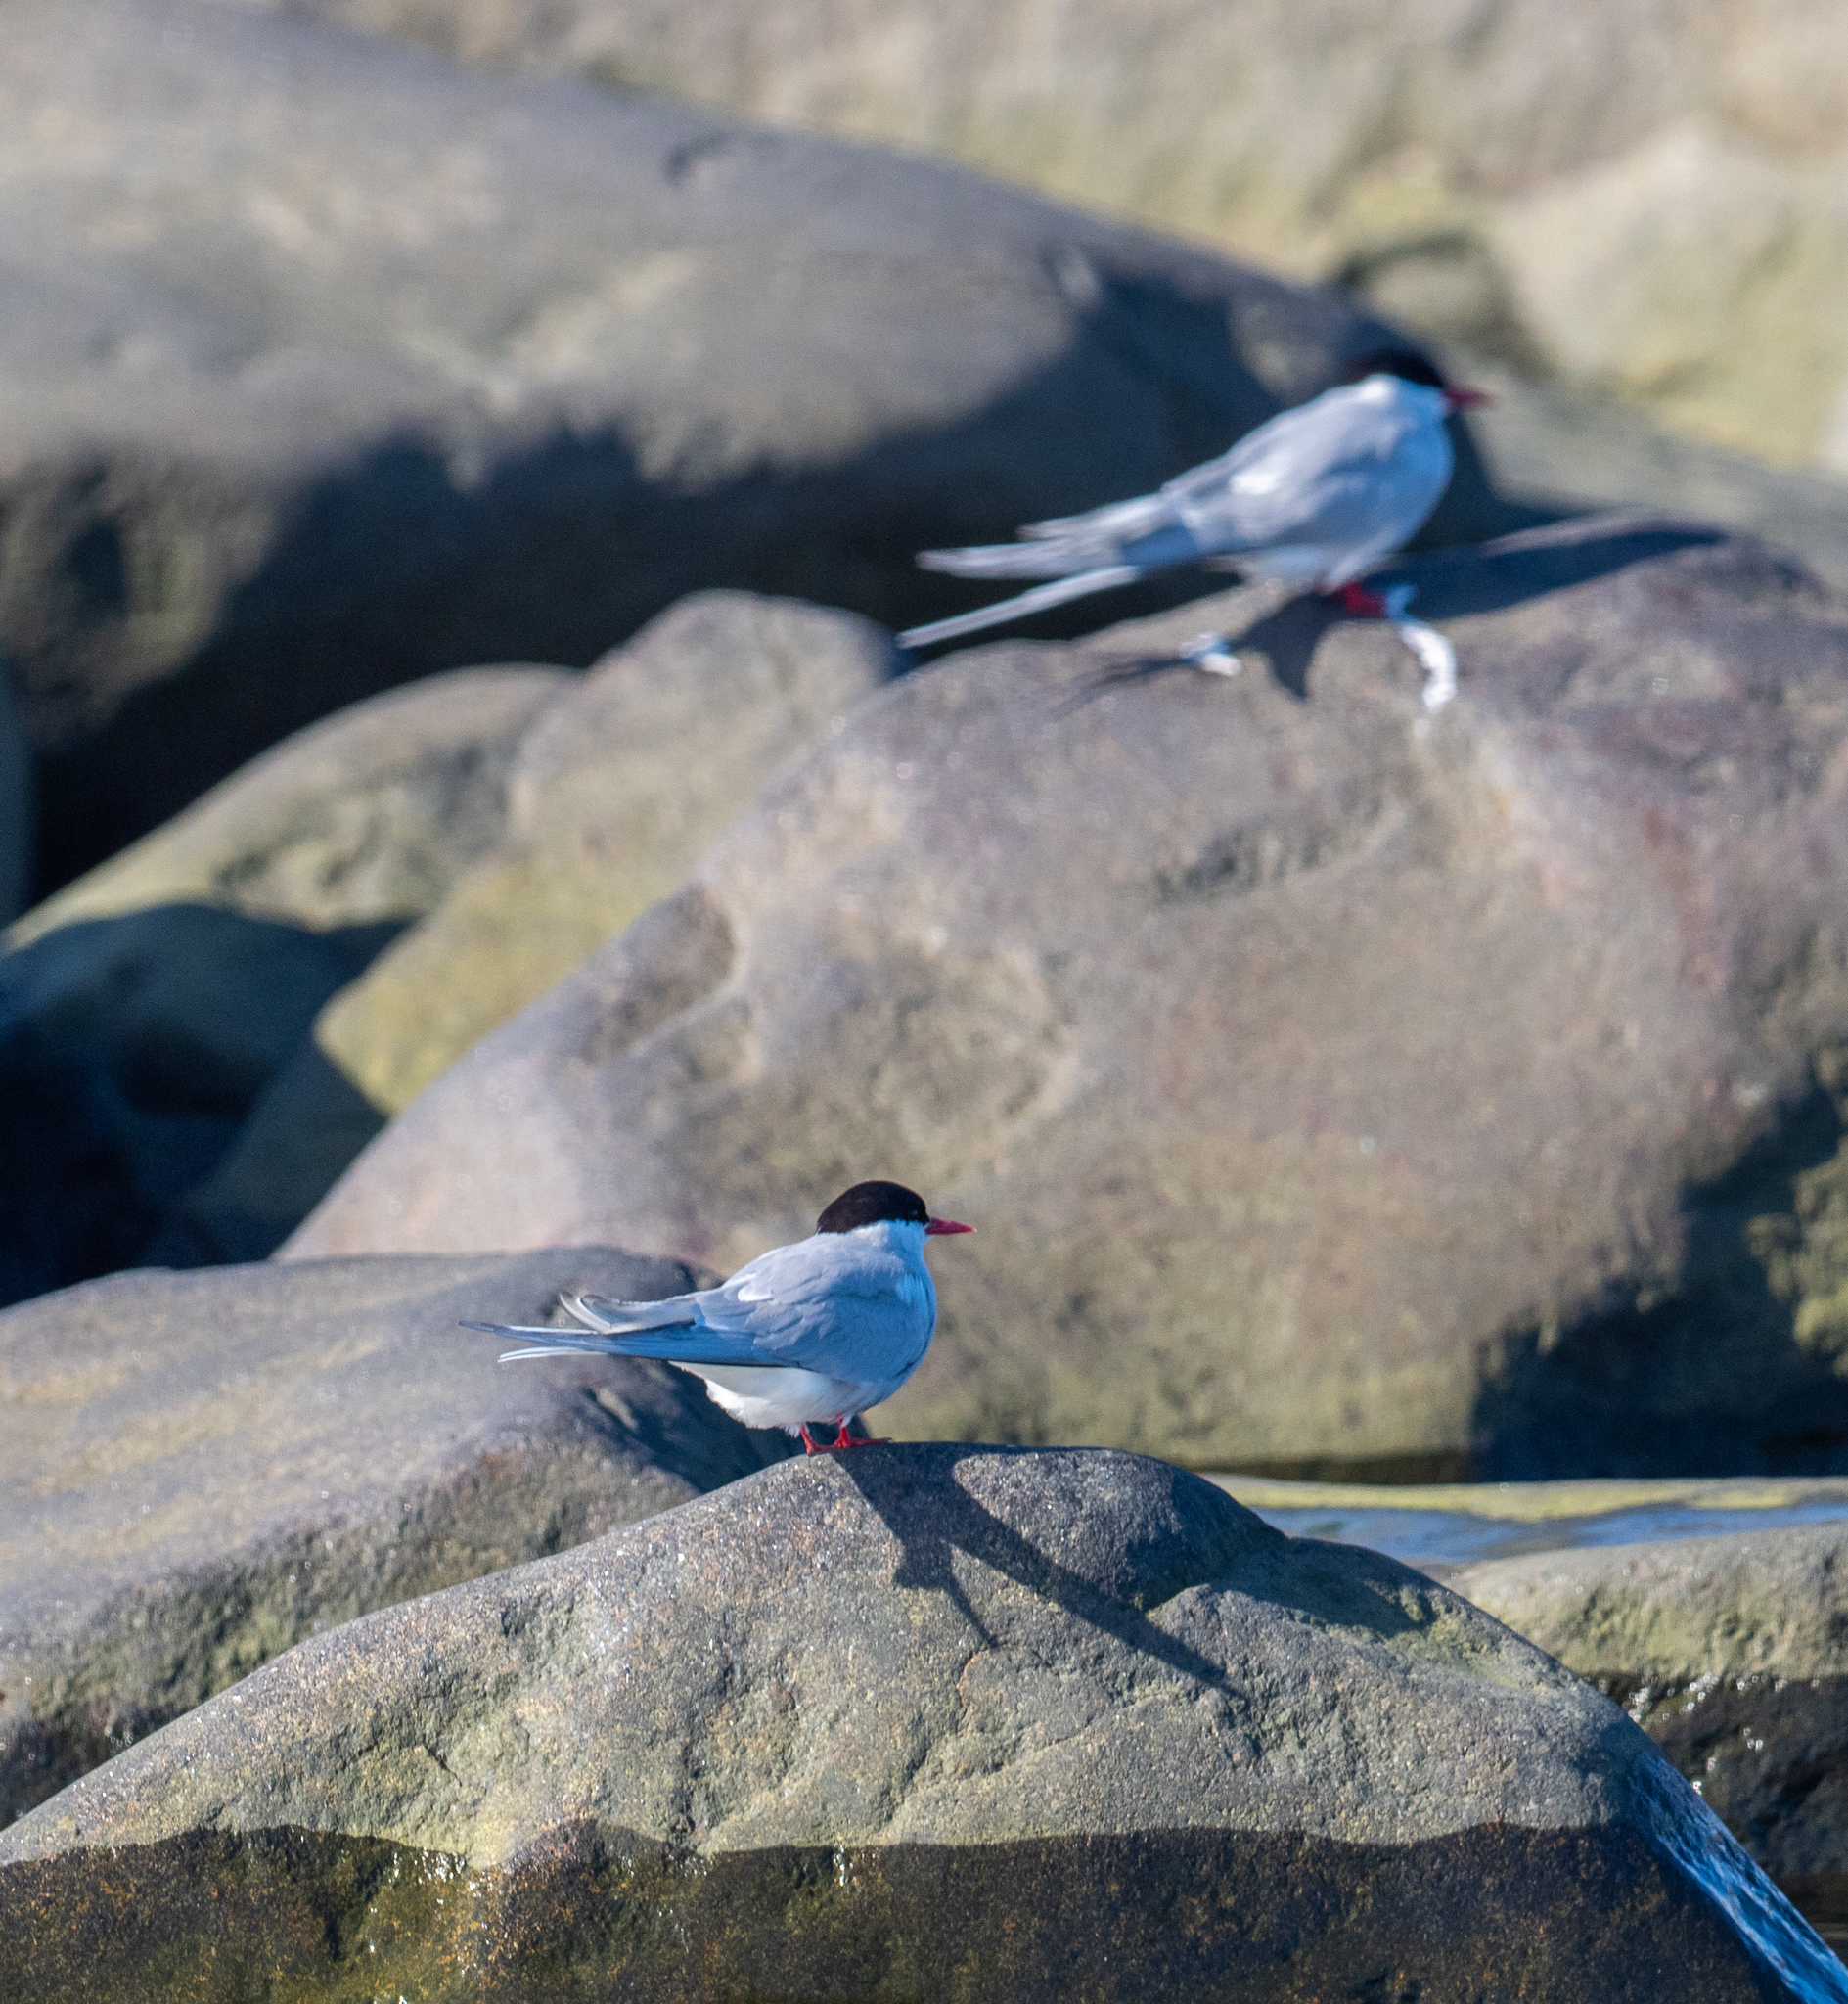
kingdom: Animalia
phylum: Chordata
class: Aves
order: Charadriiformes
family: Laridae
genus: Sterna
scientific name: Sterna paradisaea
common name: Arctic tern
